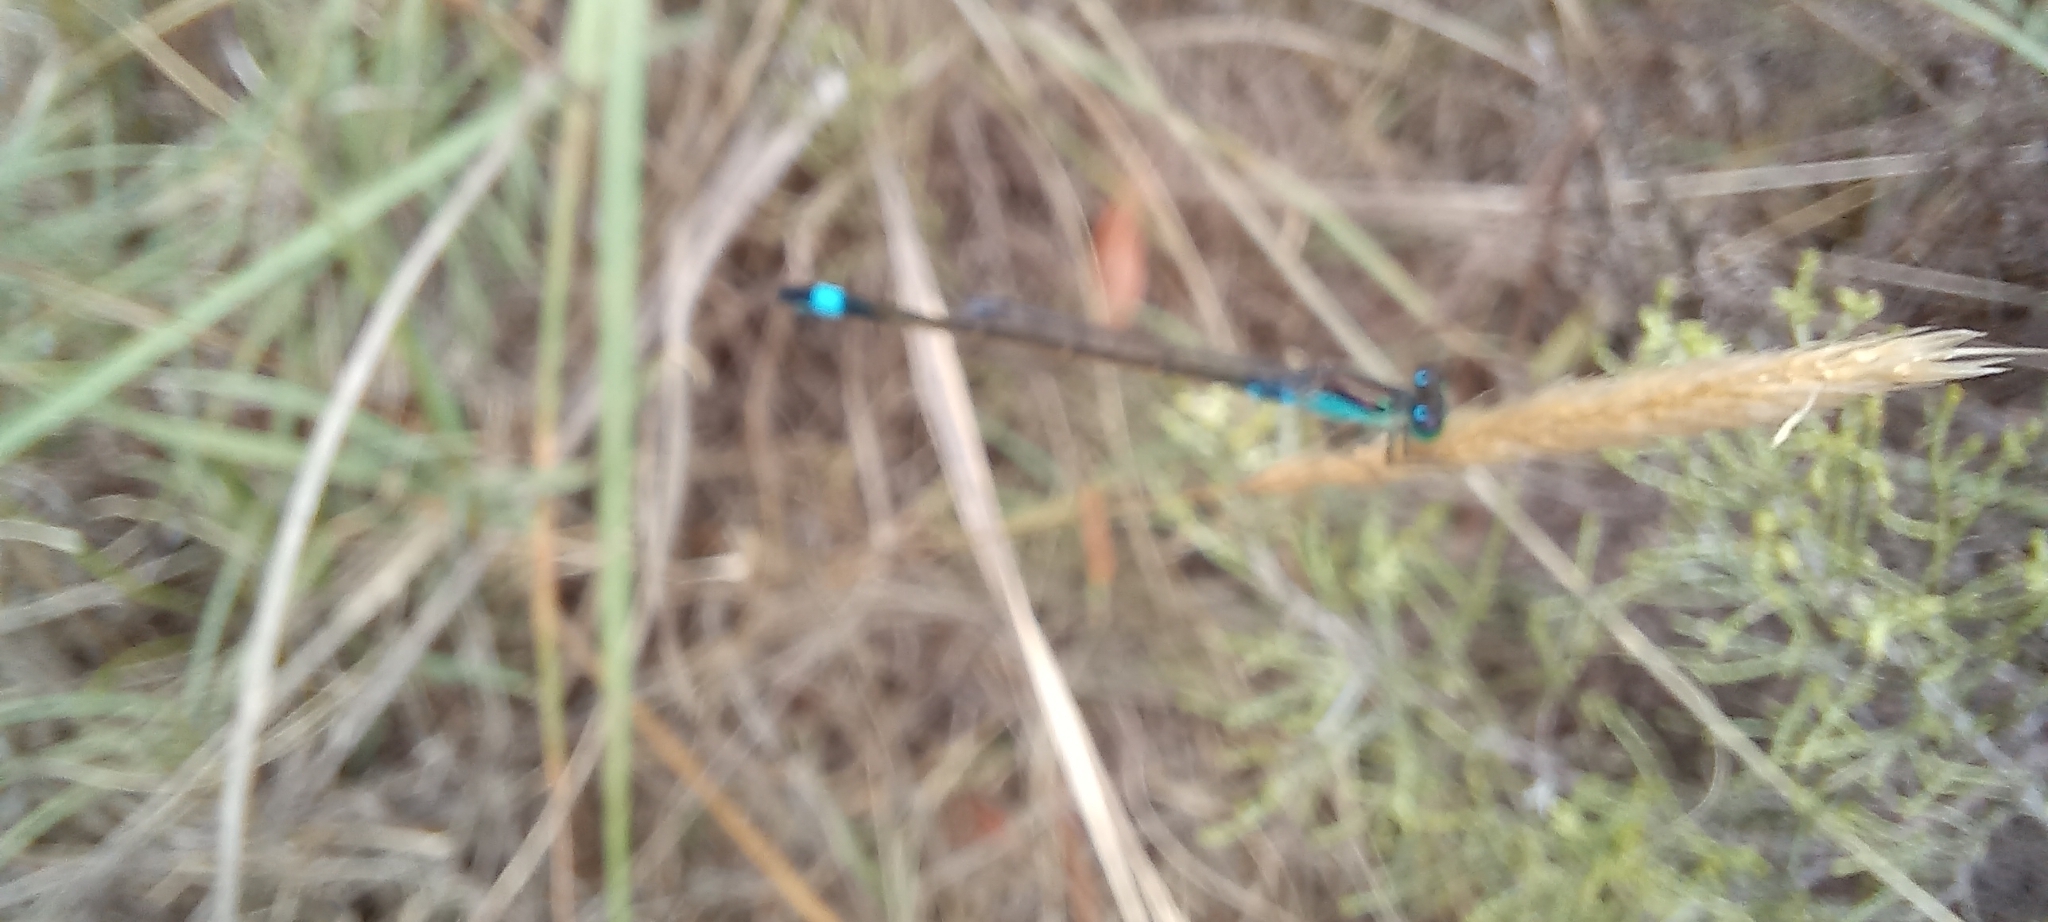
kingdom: Animalia
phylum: Arthropoda
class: Insecta
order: Odonata
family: Coenagrionidae
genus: Ischnura
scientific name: Ischnura senegalensis
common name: Tropical bluetail
